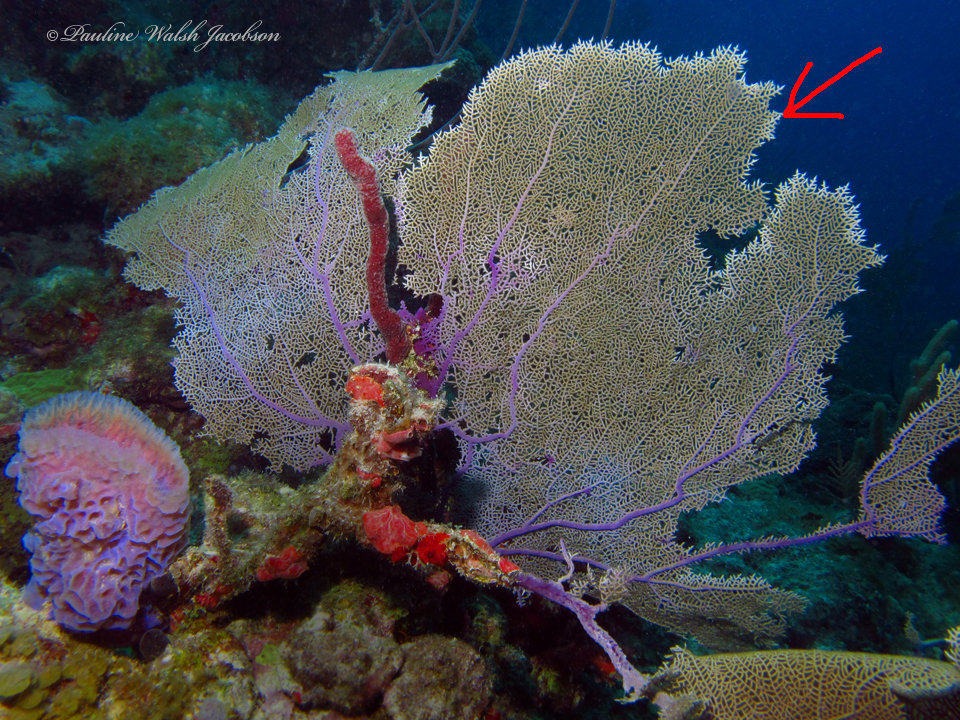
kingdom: Animalia
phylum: Cnidaria
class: Anthozoa
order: Malacalcyonacea
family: Gorgoniidae
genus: Gorgonia
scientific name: Gorgonia ventalina
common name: Common sea fan
